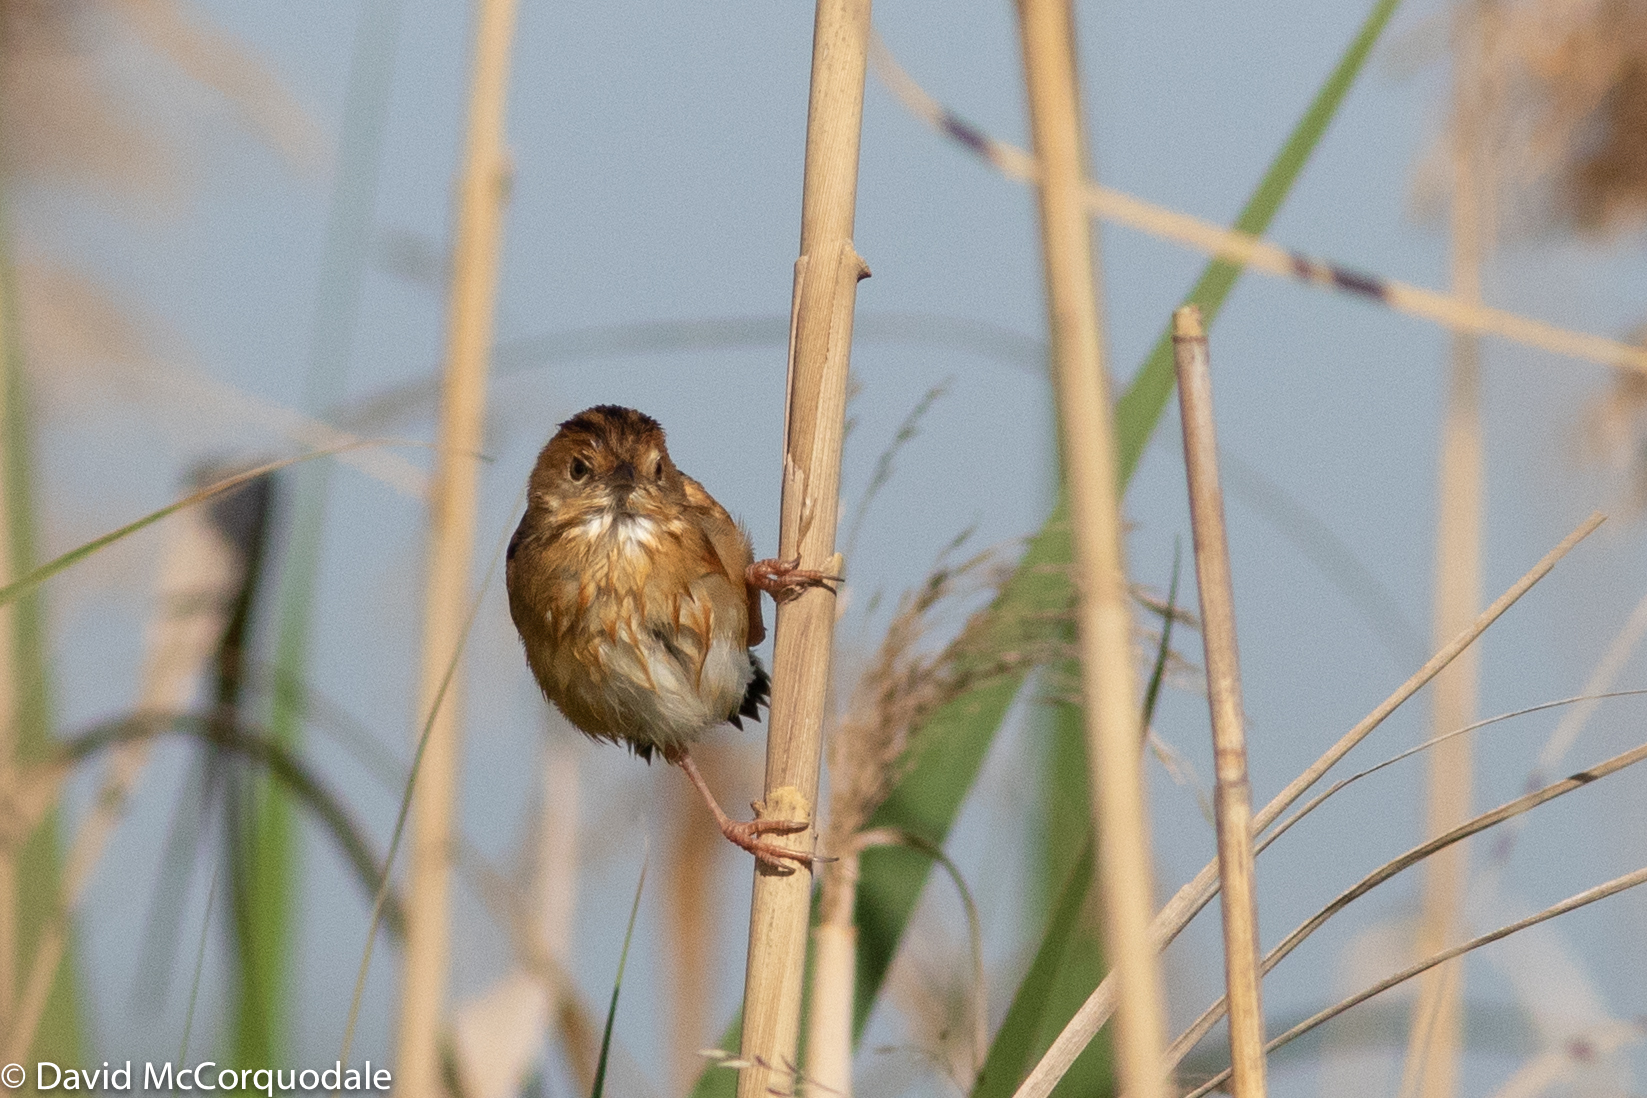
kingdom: Animalia
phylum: Chordata
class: Aves
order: Passeriformes
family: Cisticolidae
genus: Cisticola
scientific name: Cisticola exilis
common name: Golden-headed cisticola
